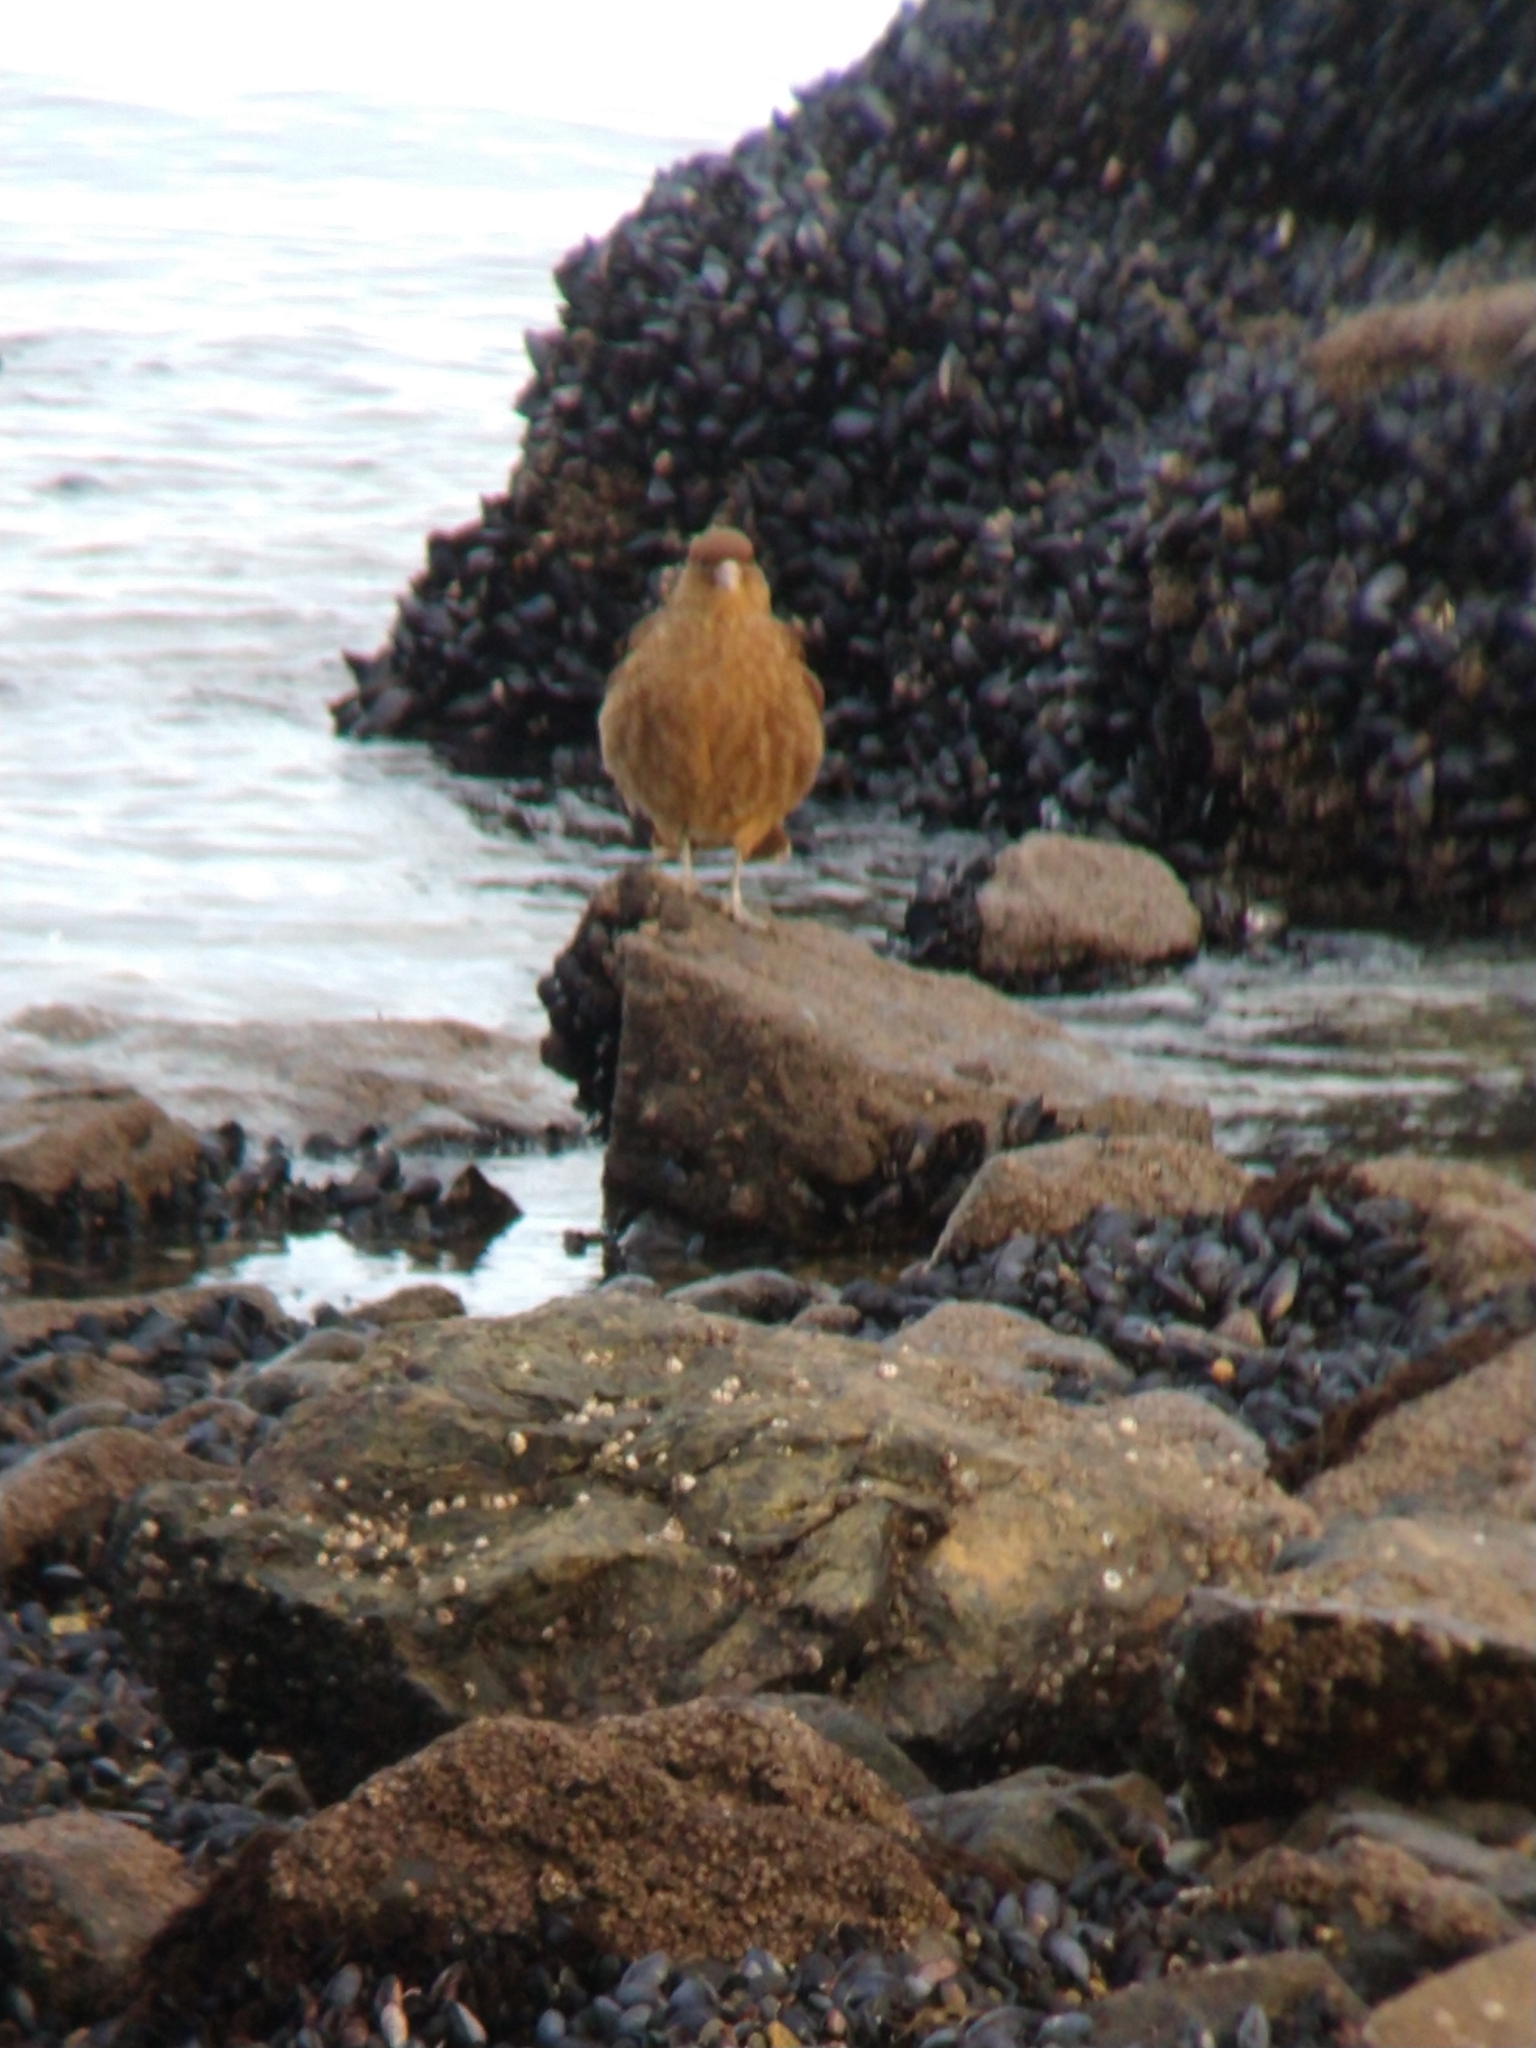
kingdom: Animalia
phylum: Chordata
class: Aves
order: Falconiformes
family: Falconidae
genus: Daptrius
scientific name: Daptrius
